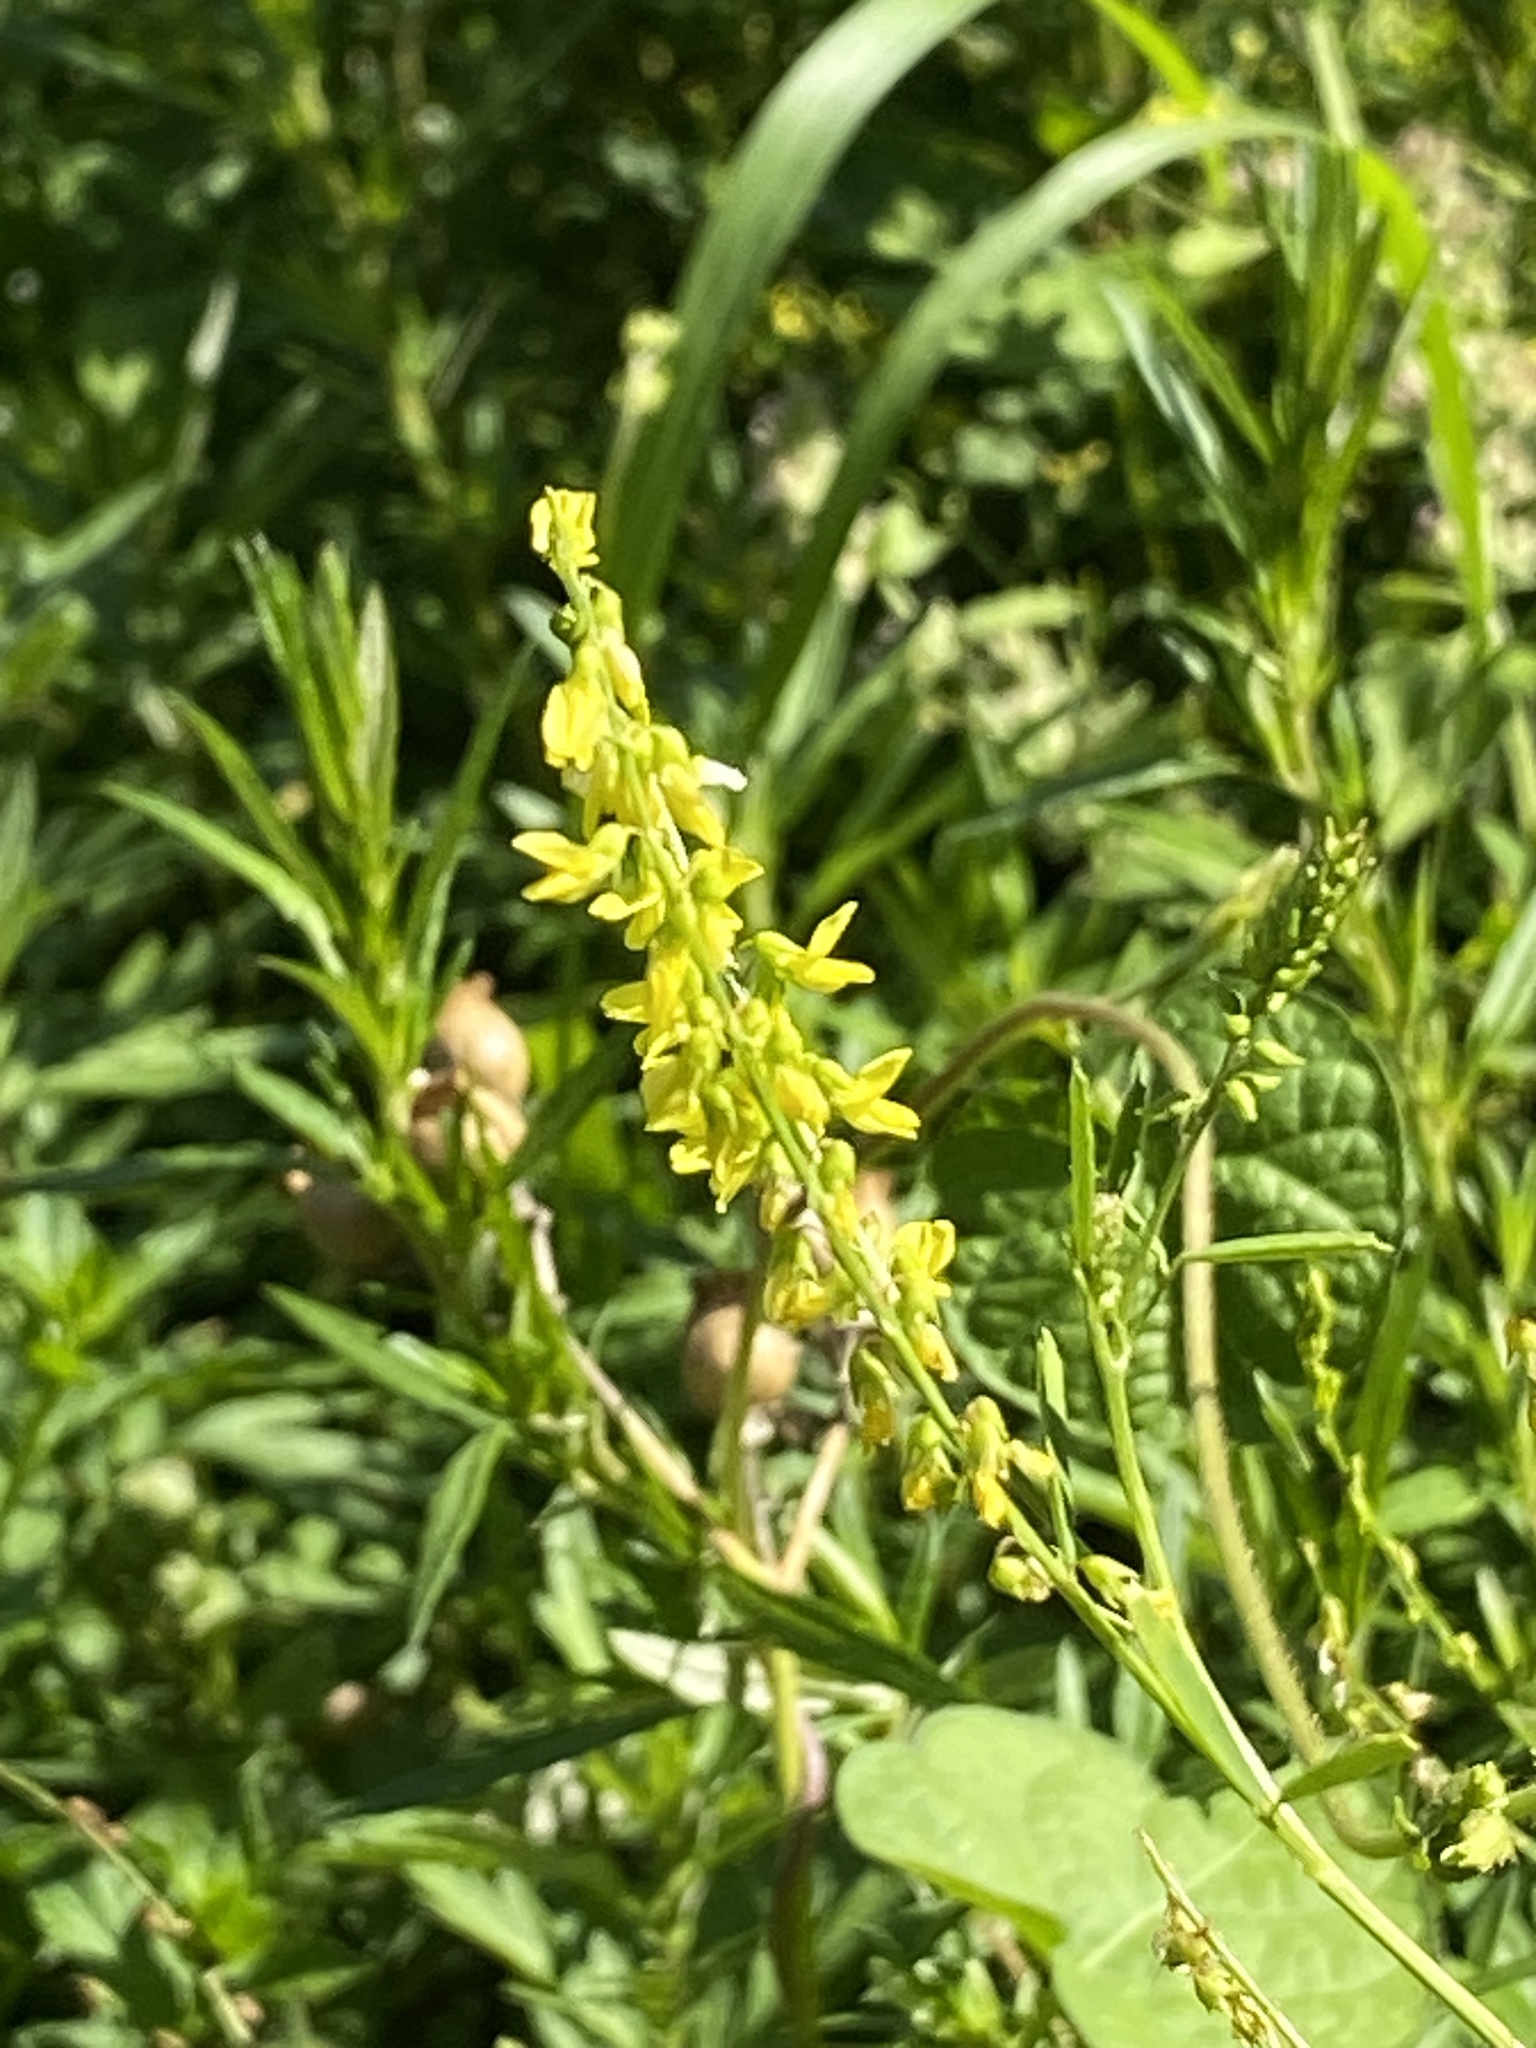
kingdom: Plantae
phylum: Tracheophyta
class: Magnoliopsida
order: Fabales
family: Fabaceae
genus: Melilotus
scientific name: Melilotus officinalis
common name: Sweetclover
